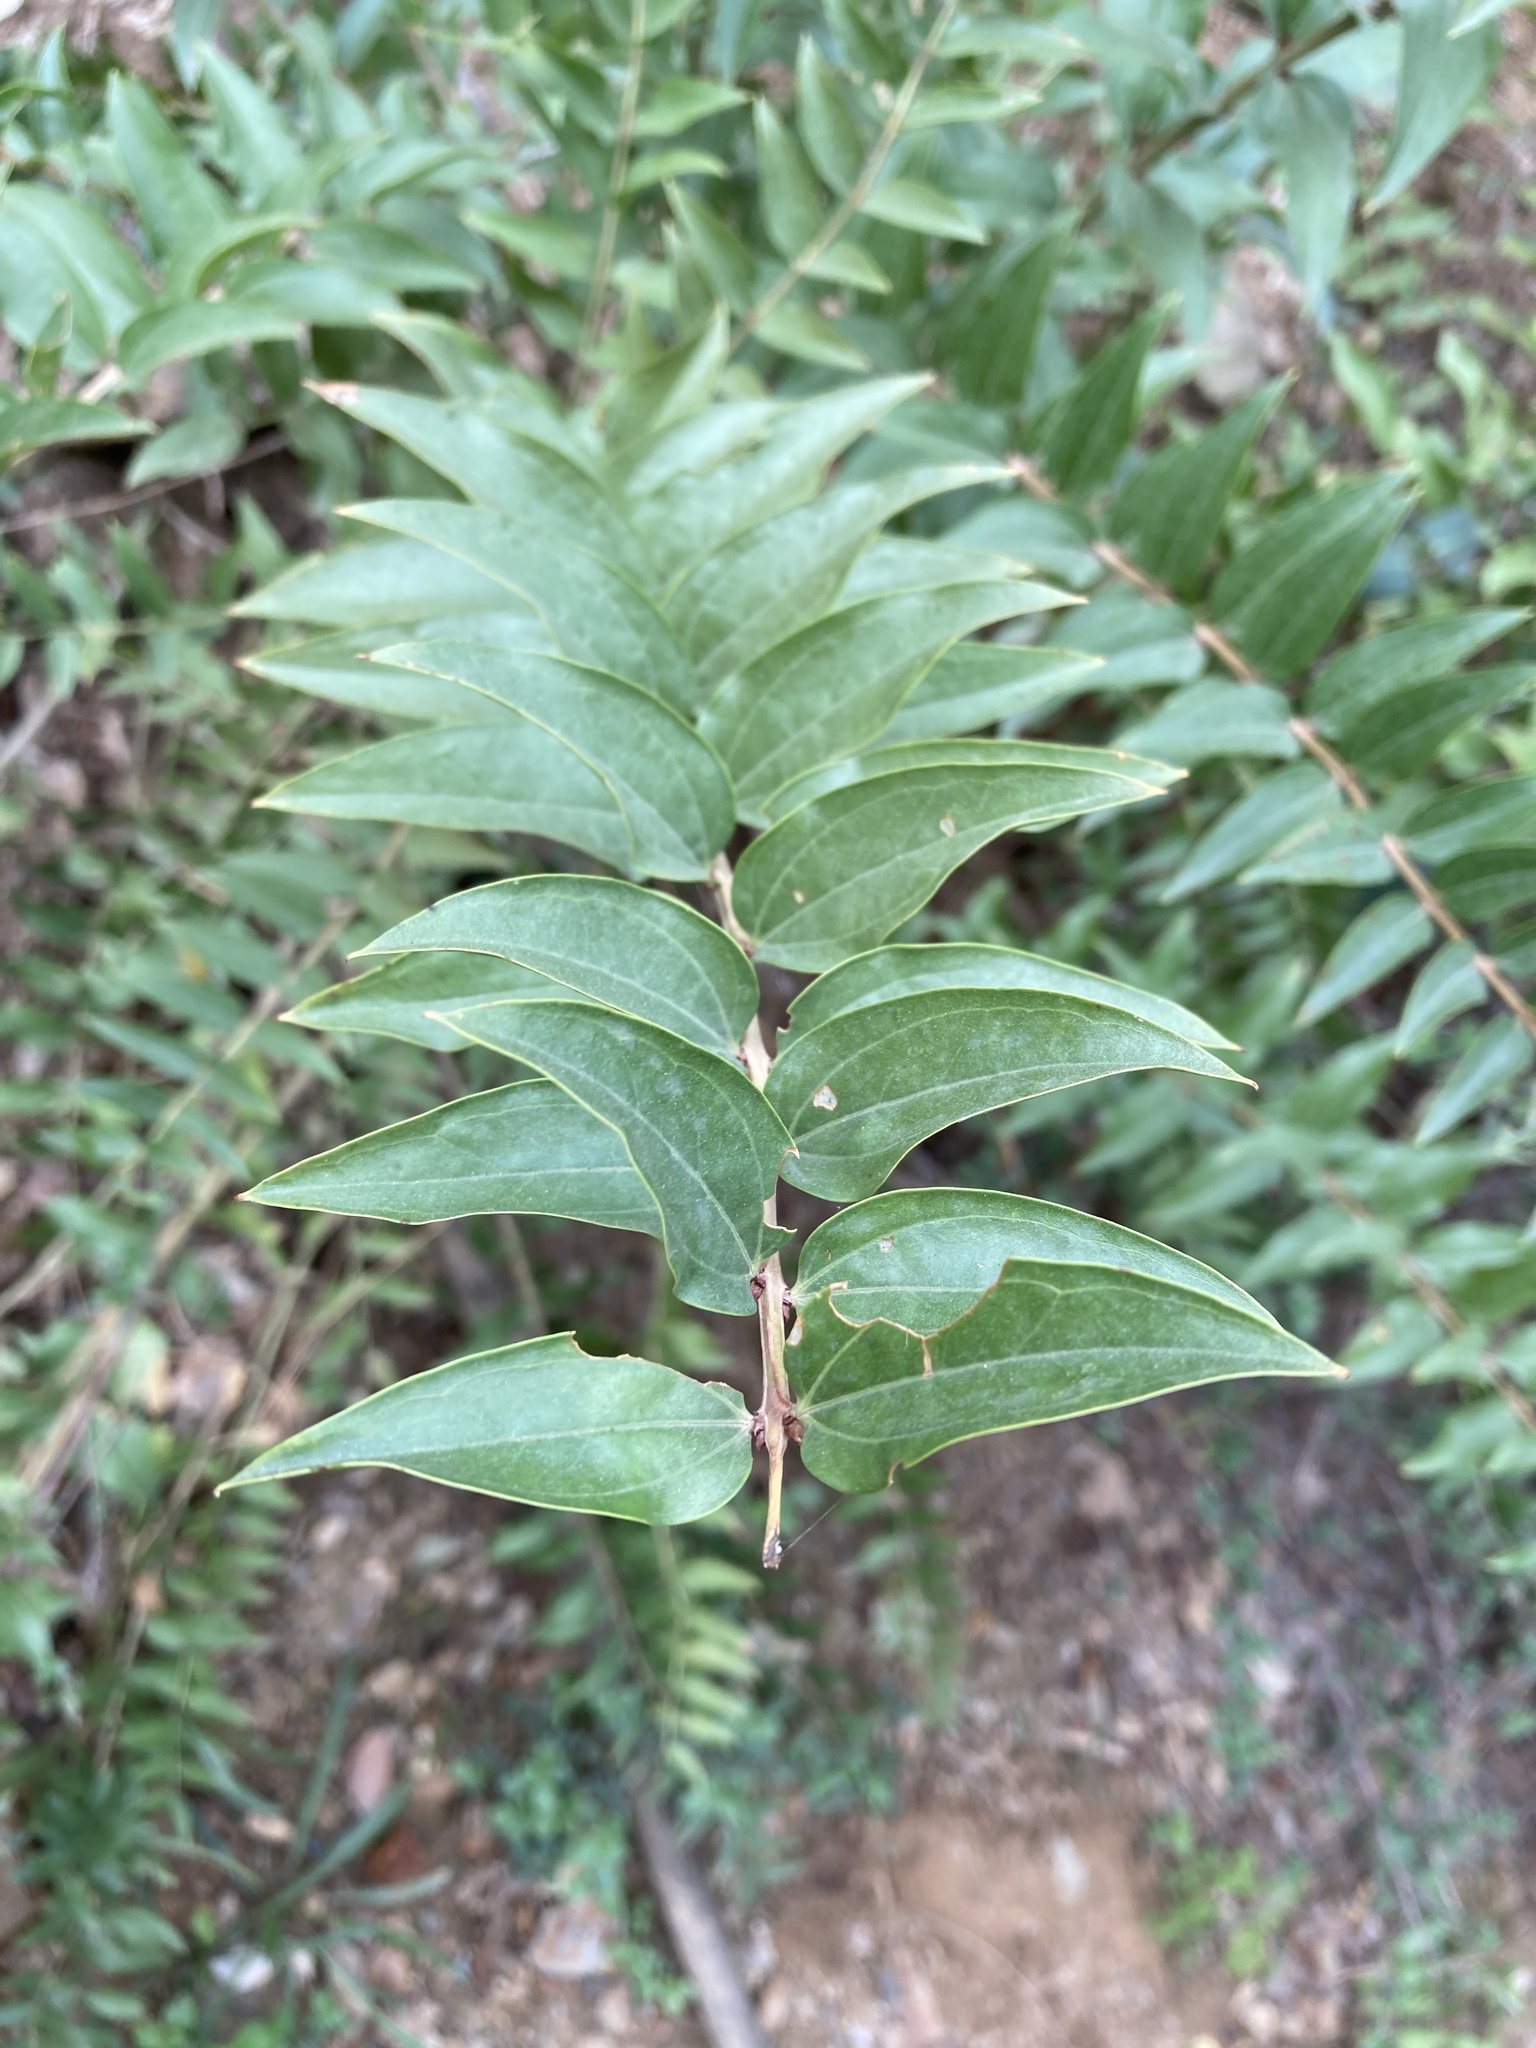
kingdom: Plantae
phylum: Tracheophyta
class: Magnoliopsida
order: Cucurbitales
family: Coriariaceae
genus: Coriaria
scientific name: Coriaria myrtifolia
